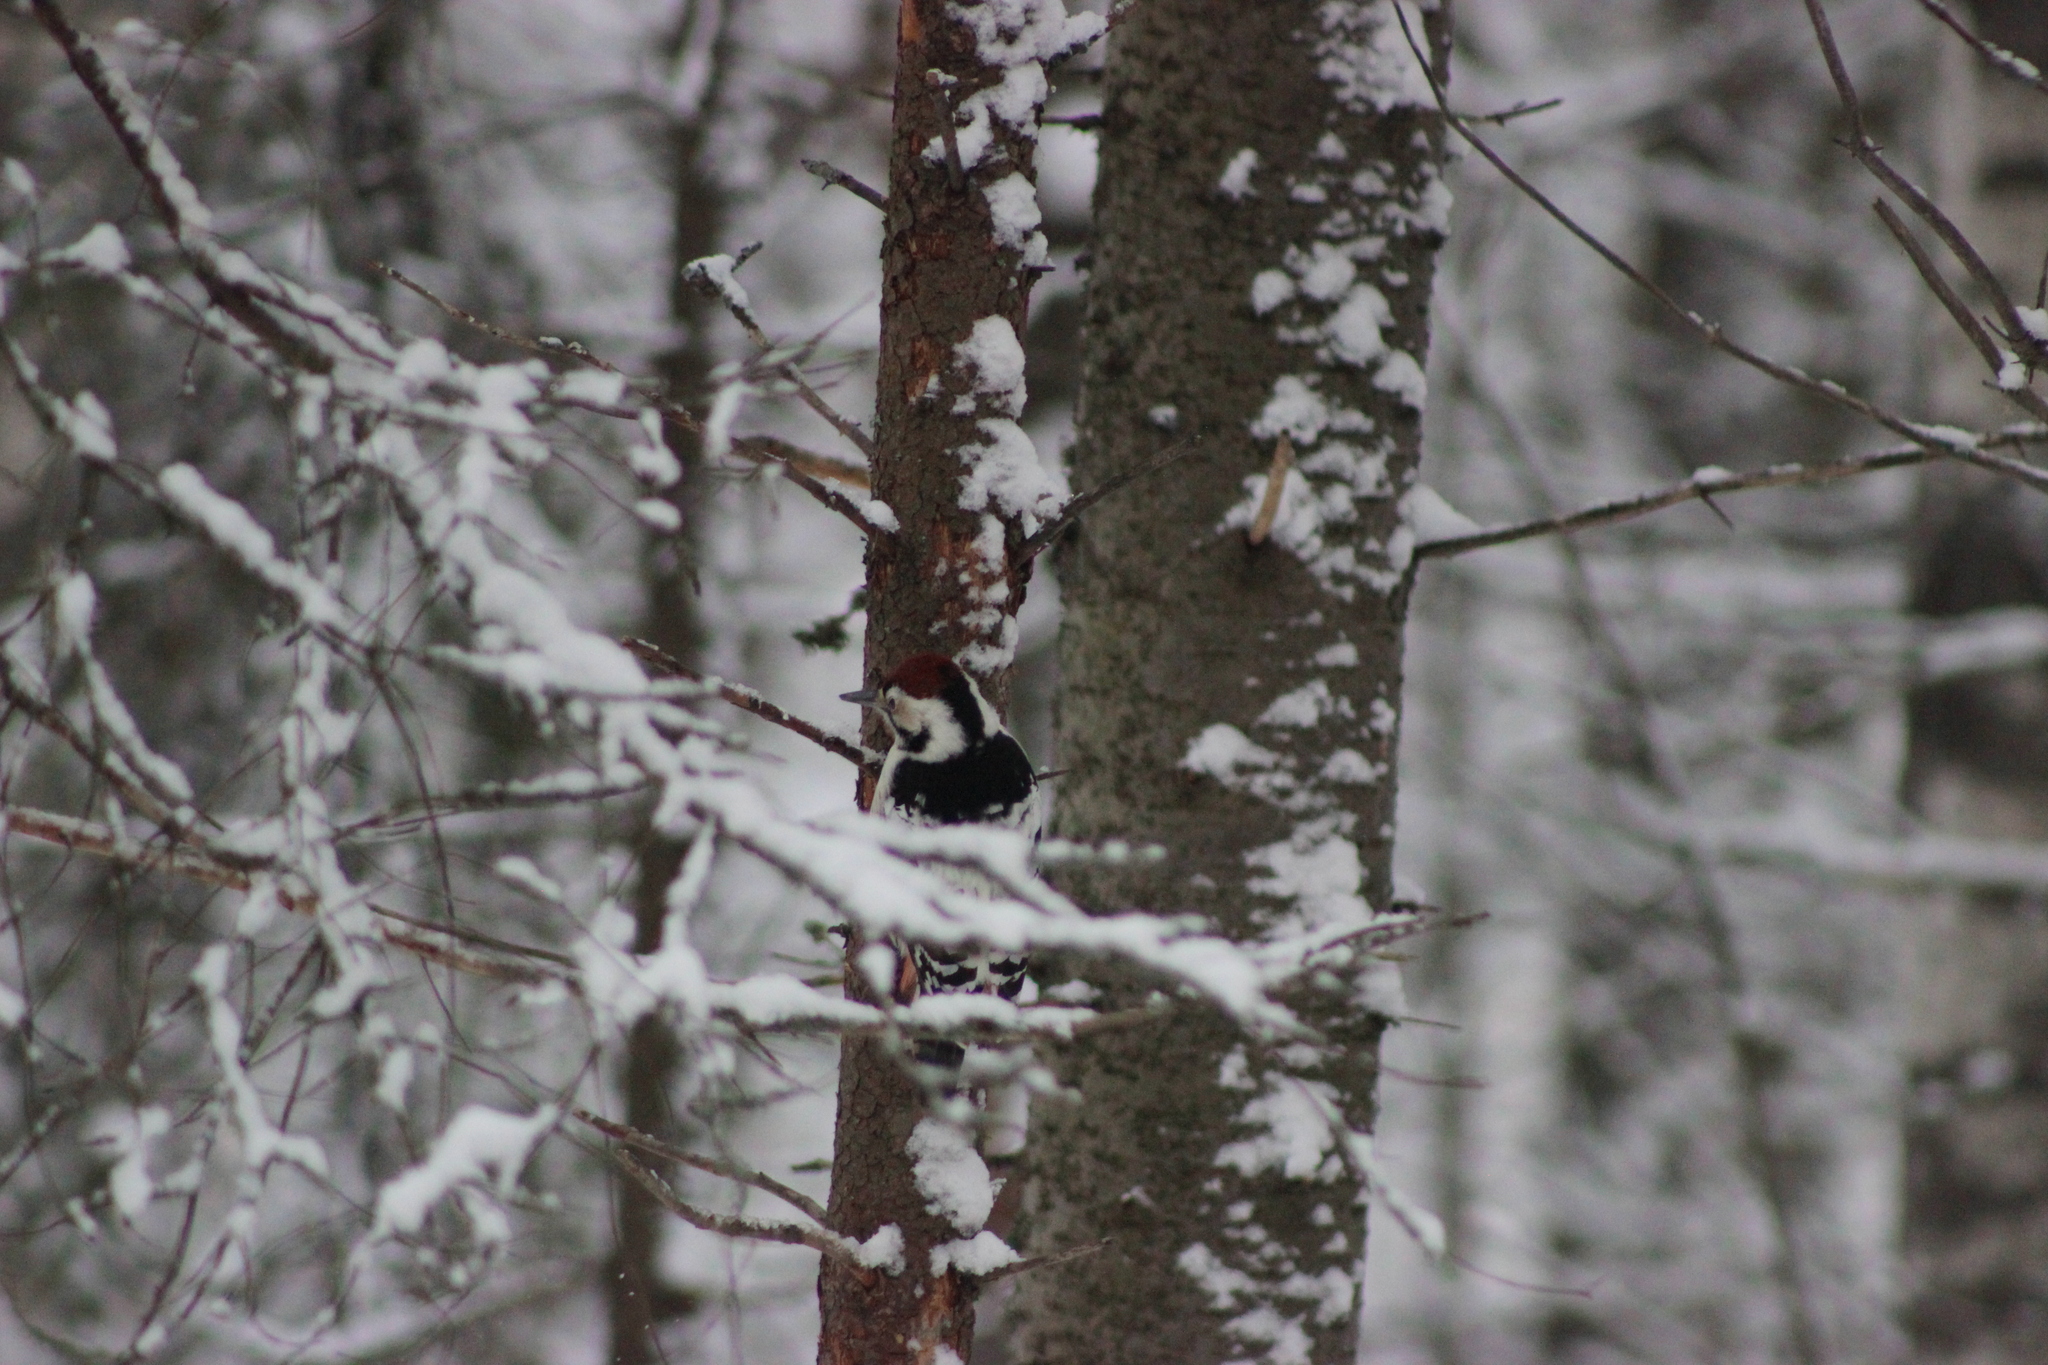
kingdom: Animalia
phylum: Chordata
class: Aves
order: Piciformes
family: Picidae
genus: Dendrocopos
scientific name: Dendrocopos leucotos
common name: White-backed woodpecker
